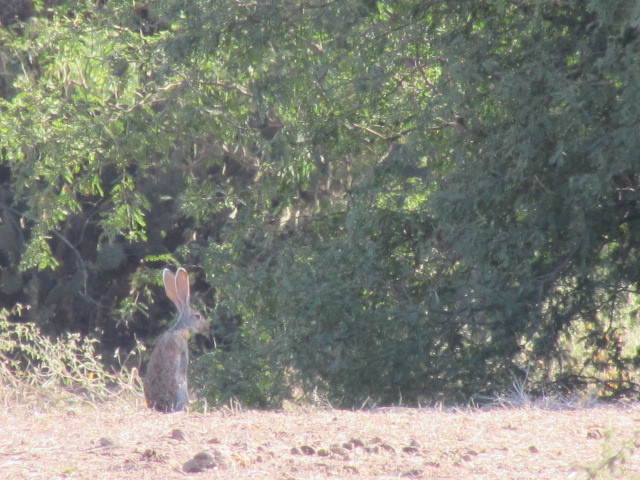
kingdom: Animalia
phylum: Chordata
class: Mammalia
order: Lagomorpha
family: Leporidae
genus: Lepus
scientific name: Lepus alleni
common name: Antelope jackrabbit
